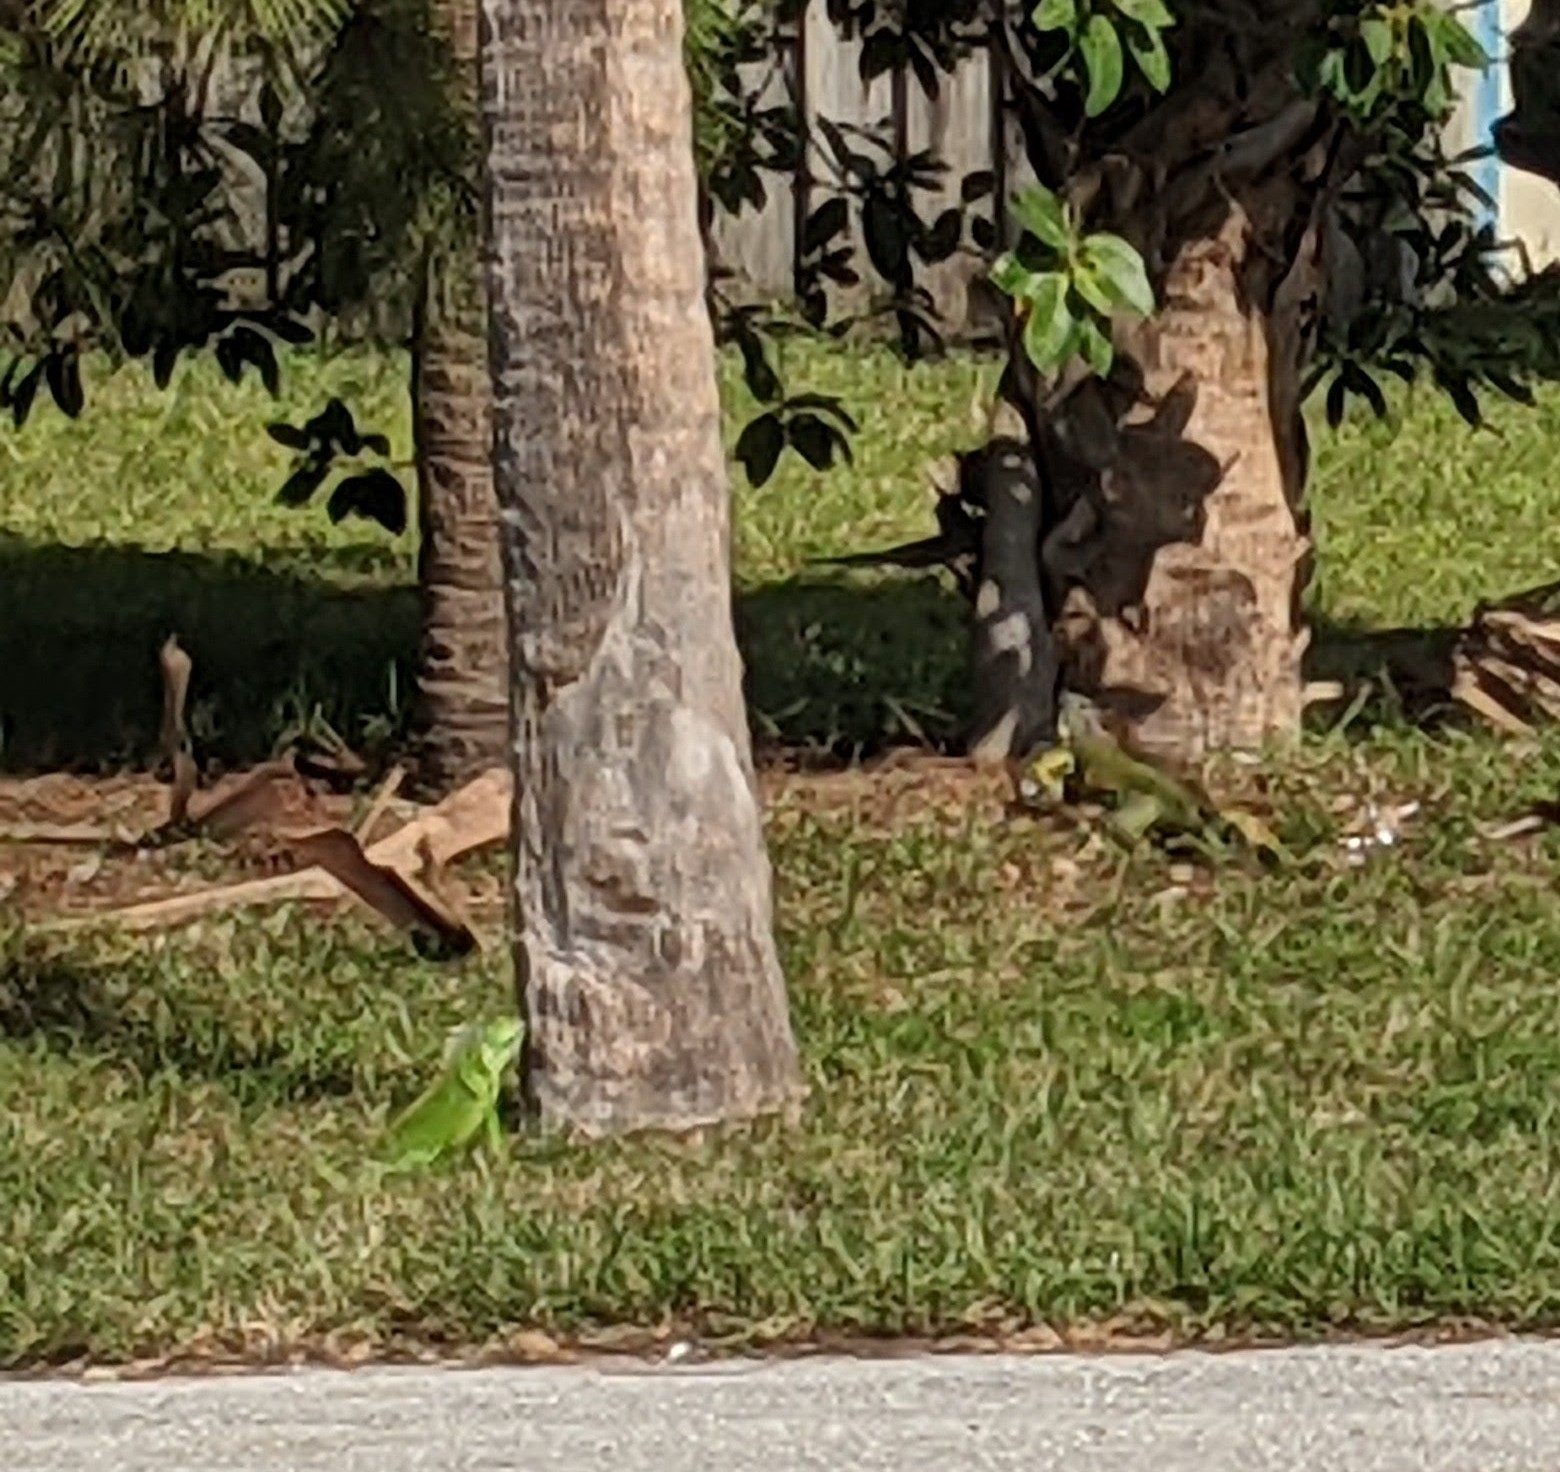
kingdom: Animalia
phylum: Chordata
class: Squamata
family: Iguanidae
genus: Iguana
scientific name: Iguana iguana
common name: Green iguana
